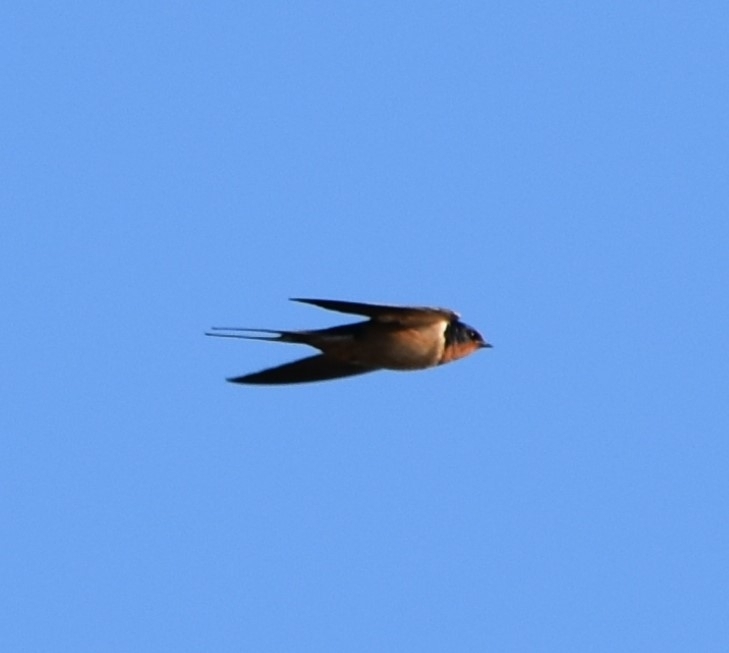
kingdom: Animalia
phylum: Chordata
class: Aves
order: Passeriformes
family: Hirundinidae
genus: Hirundo
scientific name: Hirundo rustica
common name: Barn swallow
